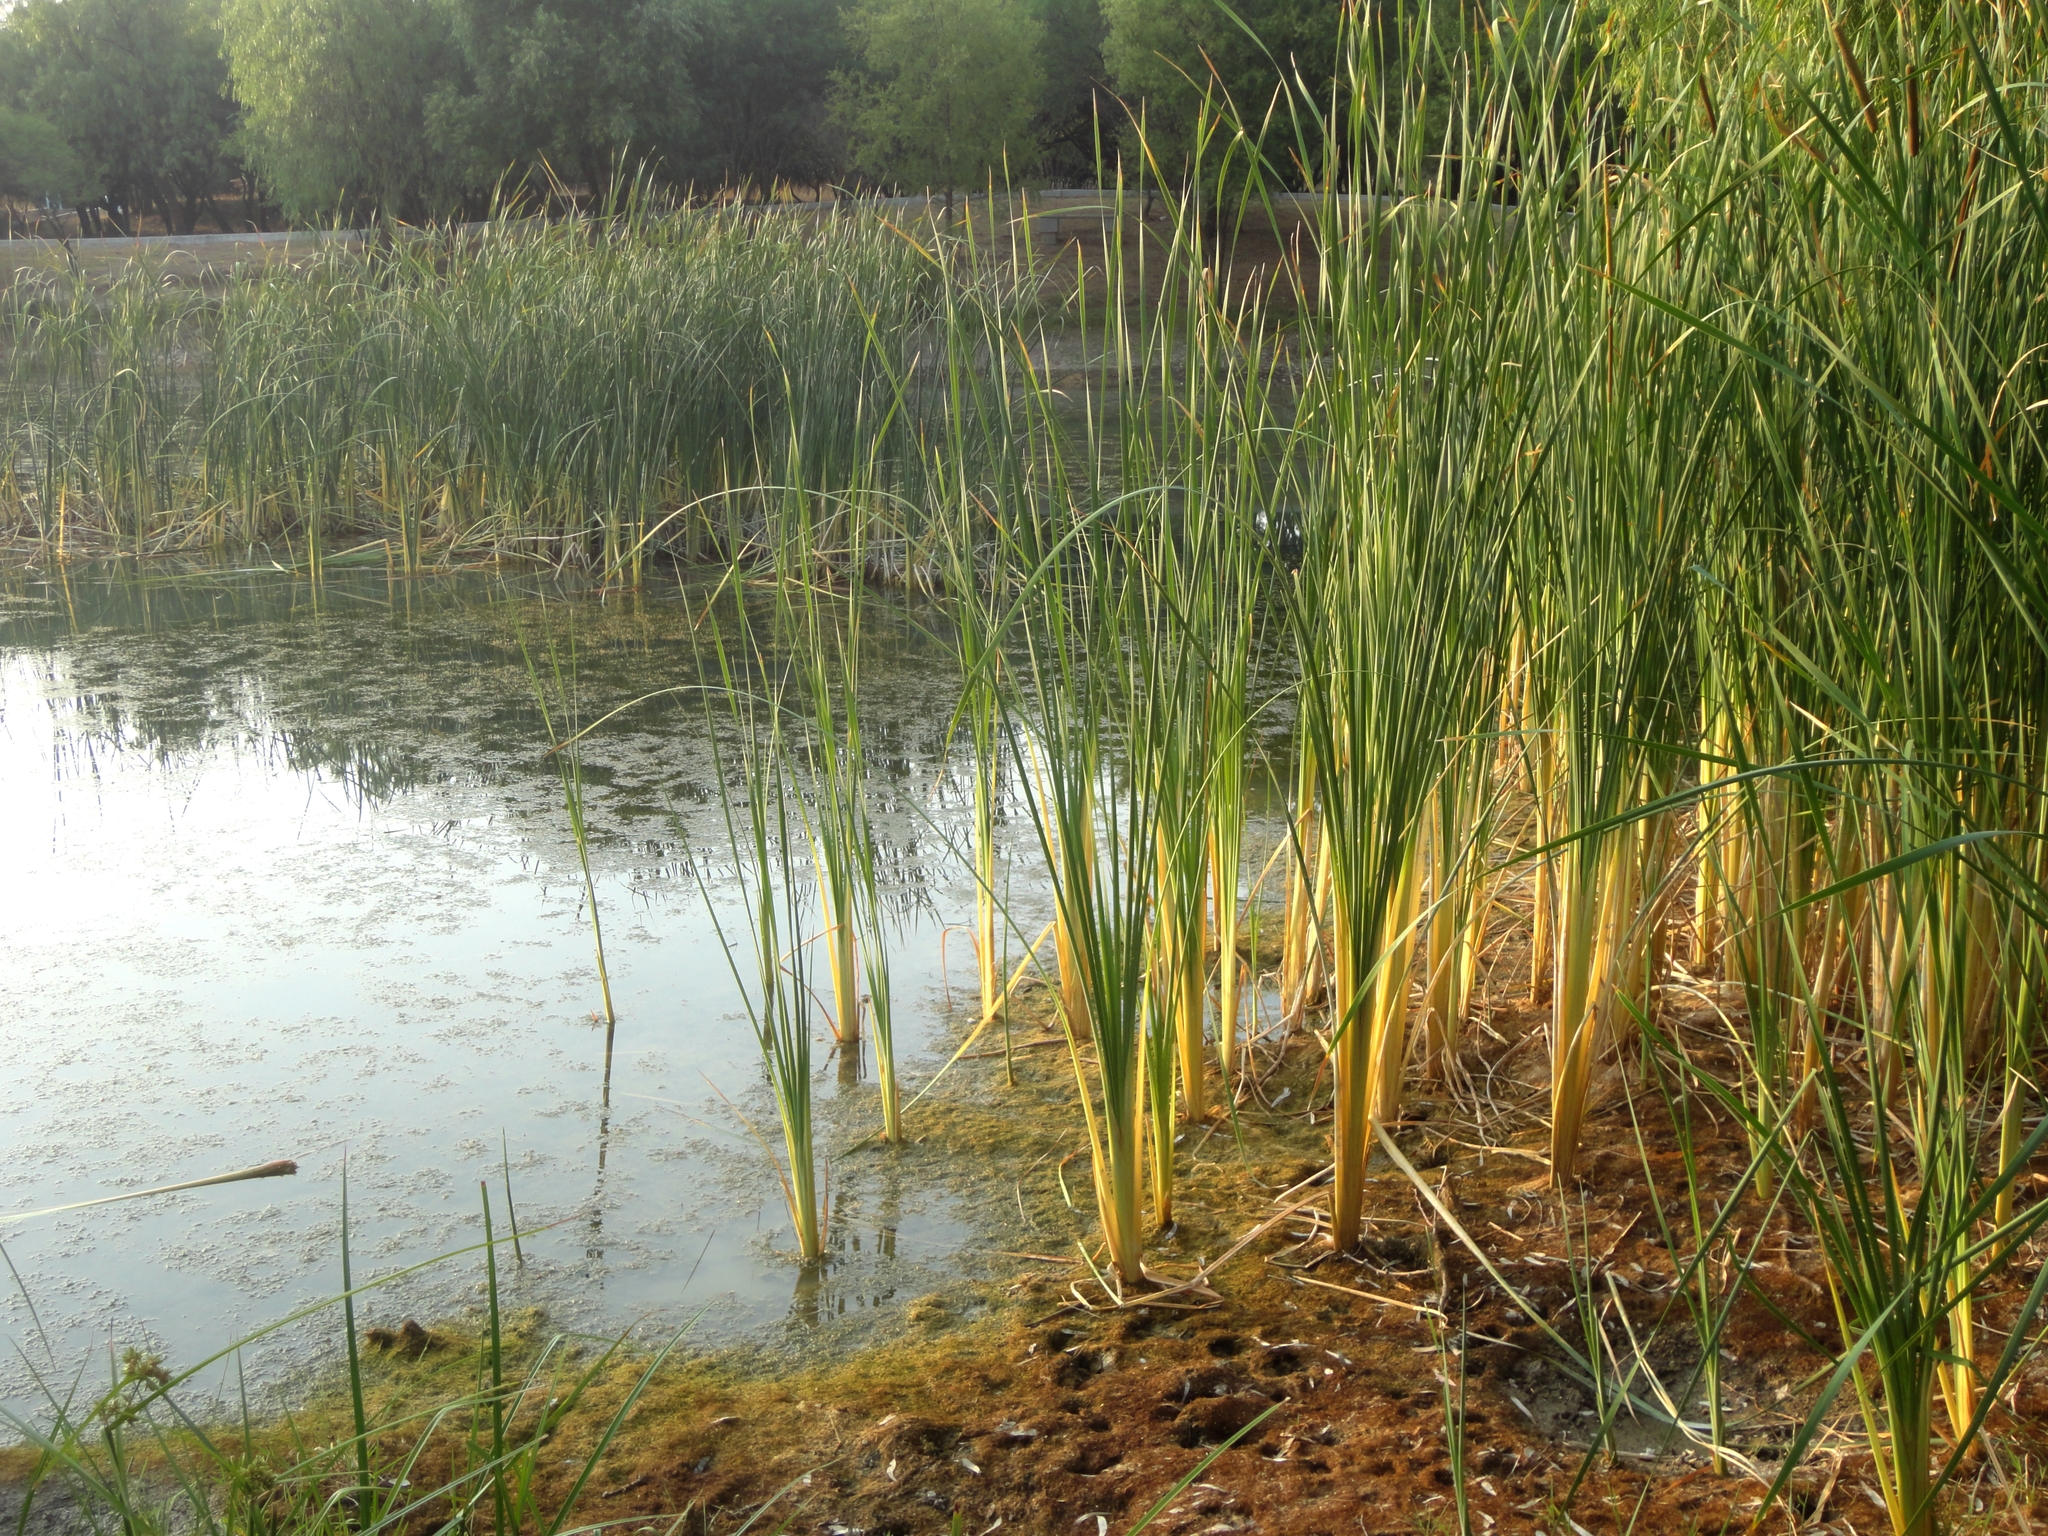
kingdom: Plantae
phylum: Tracheophyta
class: Liliopsida
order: Poales
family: Typhaceae
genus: Typha
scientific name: Typha domingensis
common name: Southern cattail
